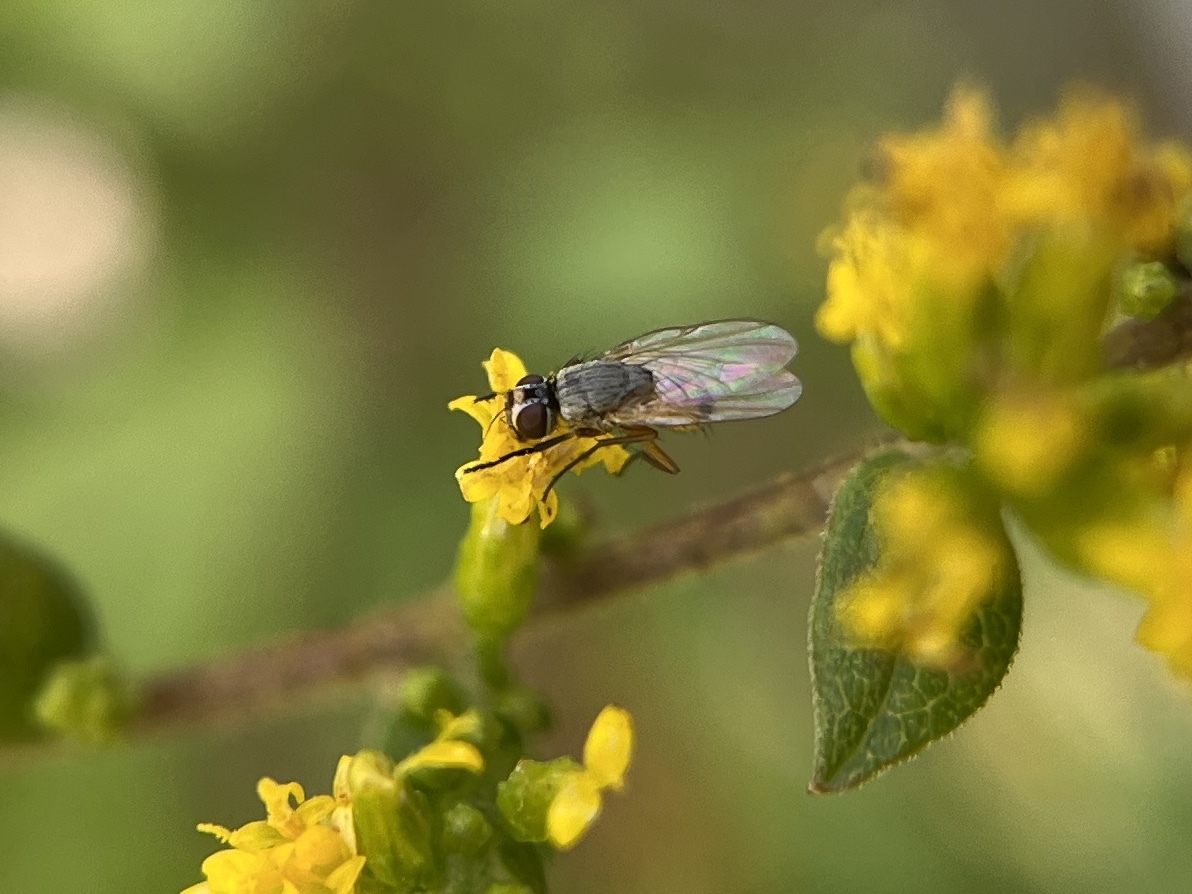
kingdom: Animalia
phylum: Arthropoda
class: Insecta
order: Diptera
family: Muscidae
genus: Atherigona
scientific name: Atherigona reversura
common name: Bermudagrass stem maggot
